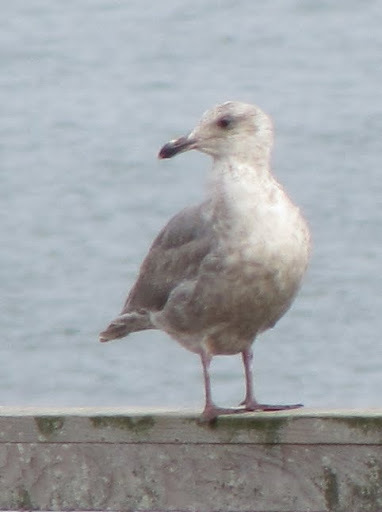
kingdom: Animalia
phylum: Chordata
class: Aves
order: Charadriiformes
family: Laridae
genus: Larus
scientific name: Larus
